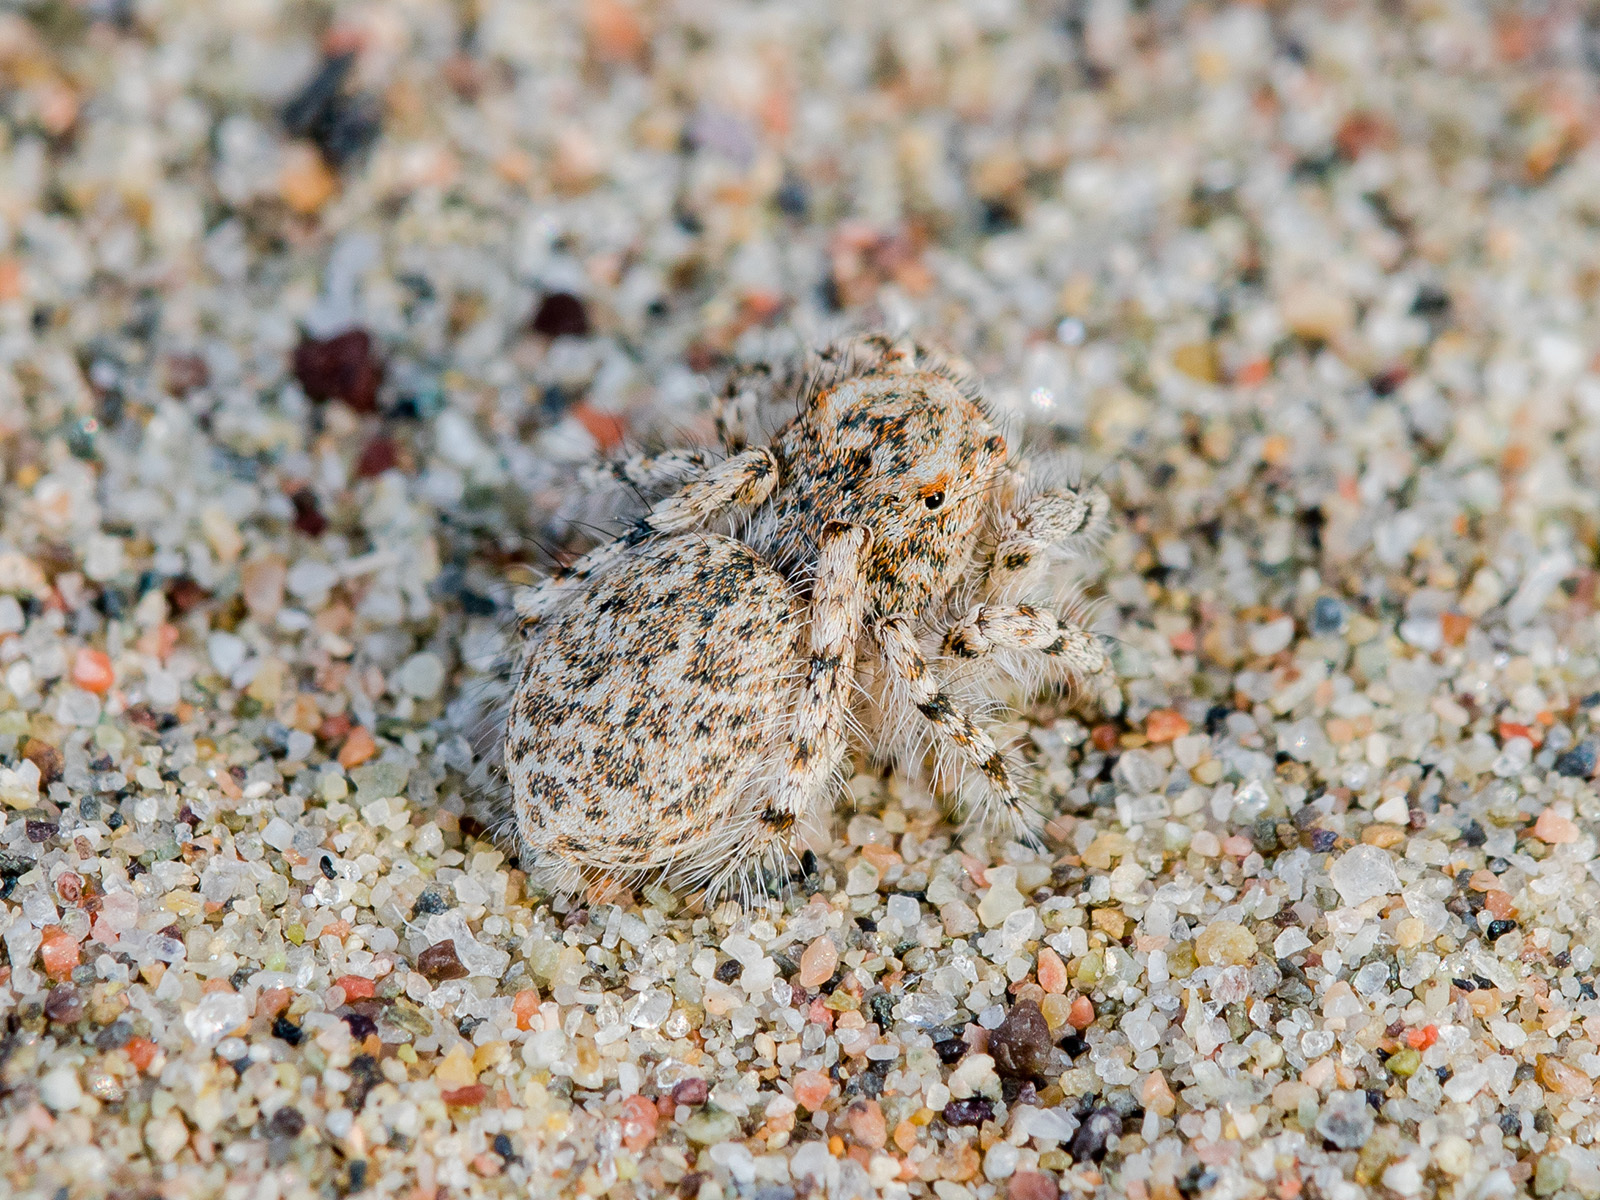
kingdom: Animalia
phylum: Arthropoda
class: Arachnida
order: Araneae
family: Salticidae
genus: Yllenus
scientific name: Yllenus uiguricus
